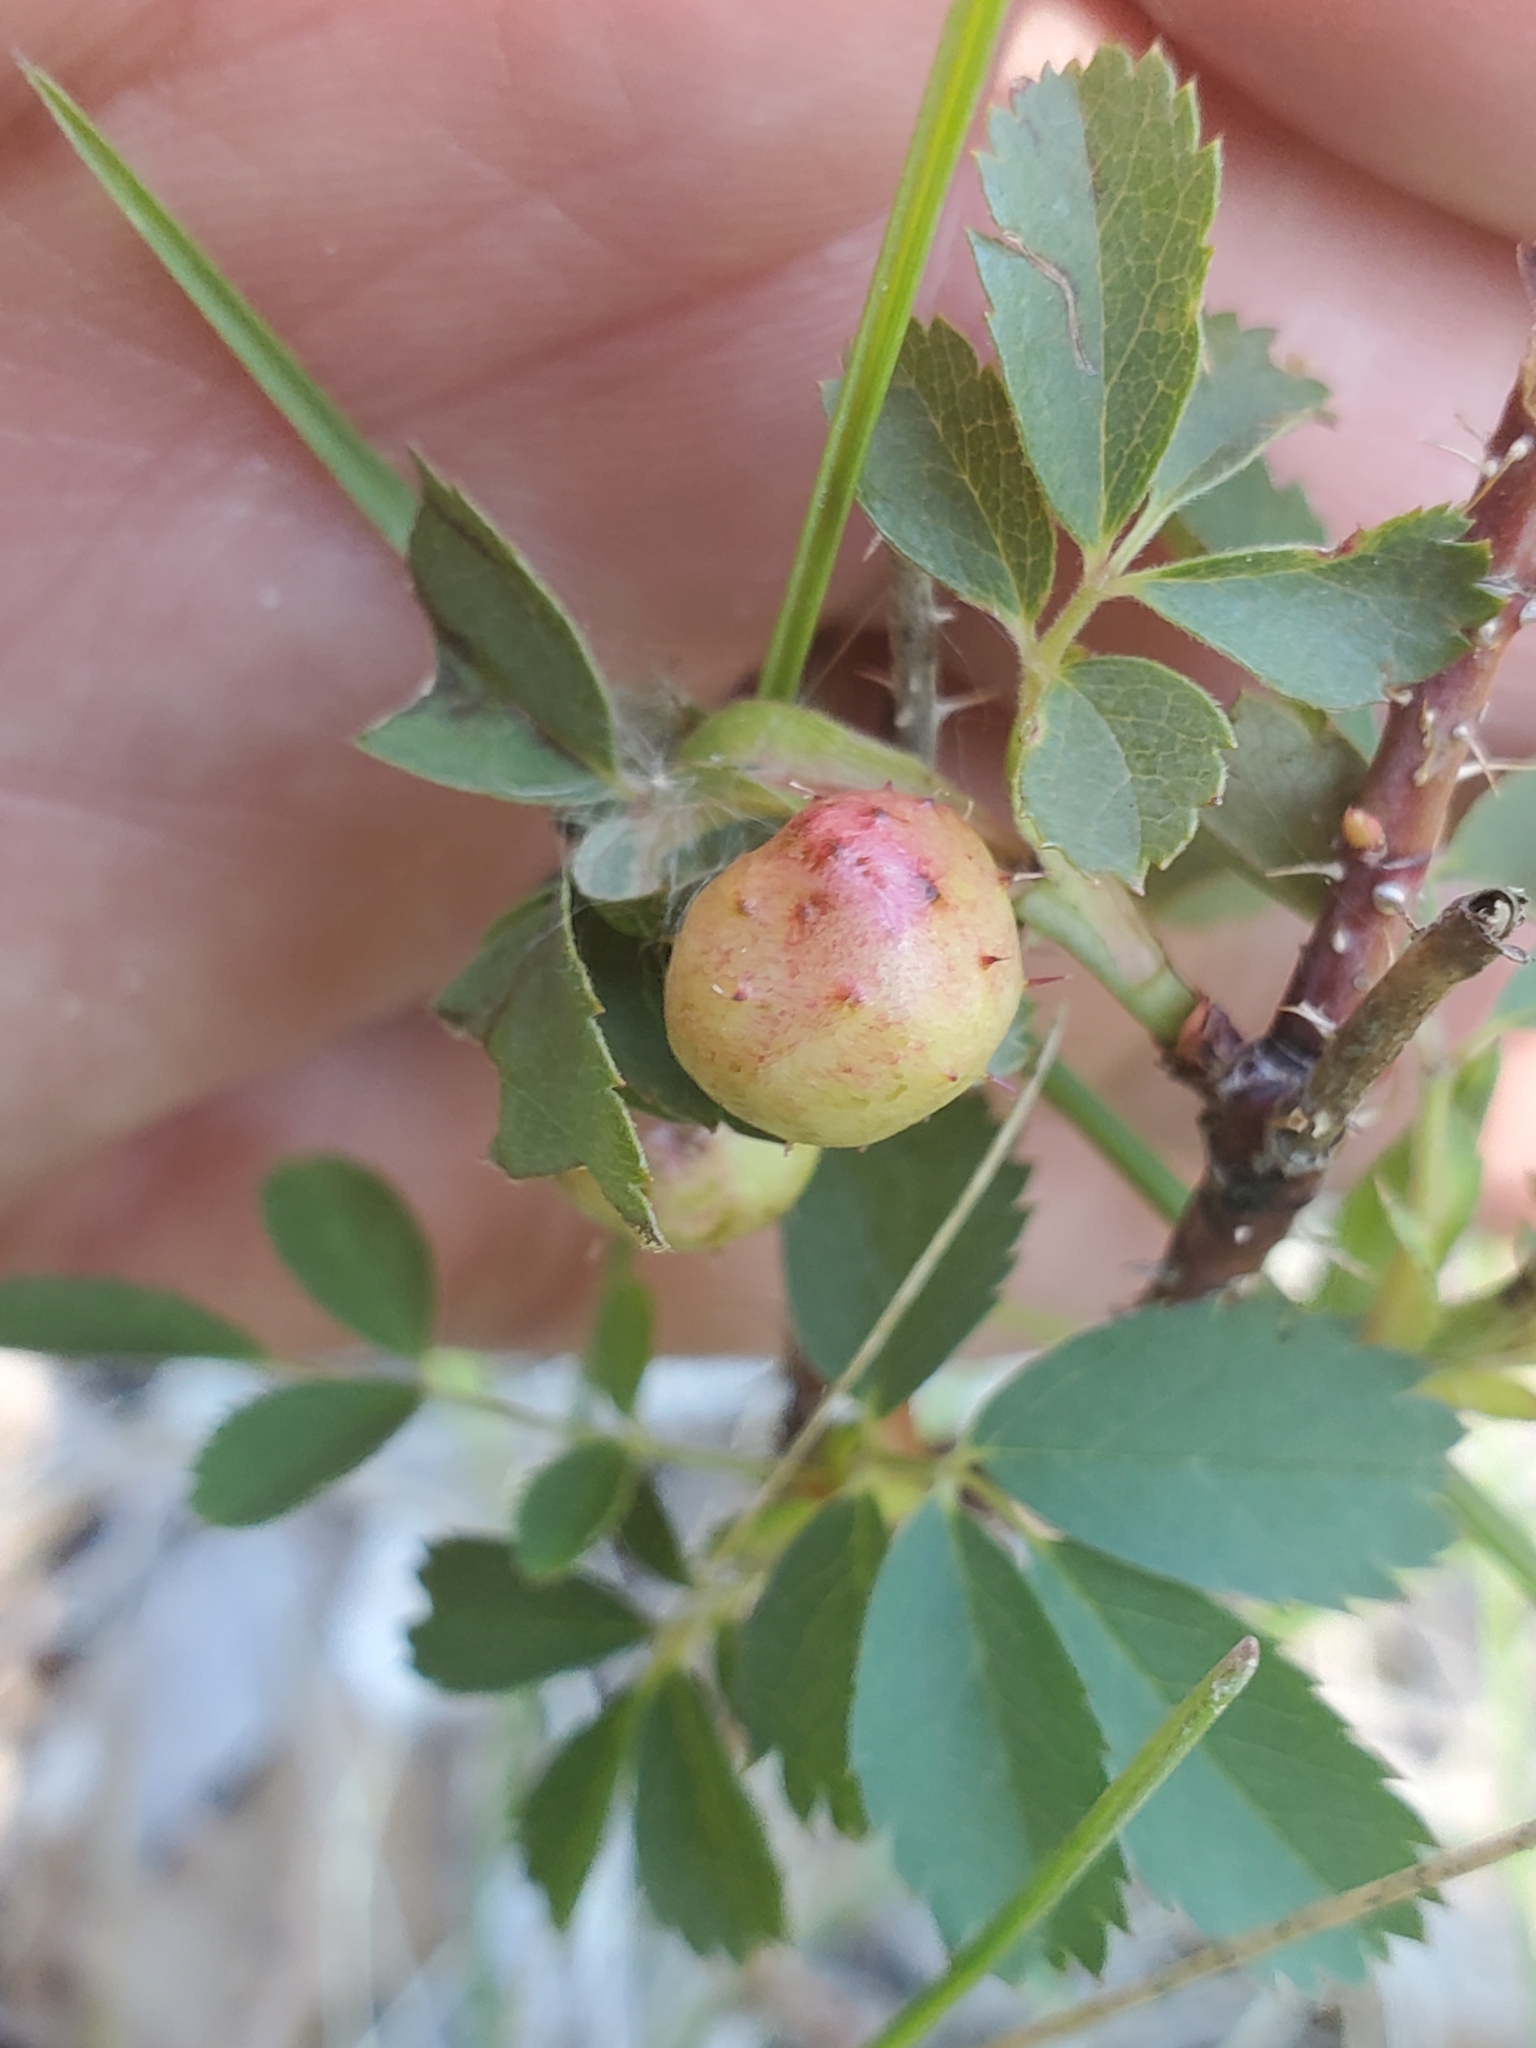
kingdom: Animalia
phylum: Arthropoda
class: Insecta
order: Hymenoptera
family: Cynipidae
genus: Diplolepis
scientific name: Diplolepis polita
